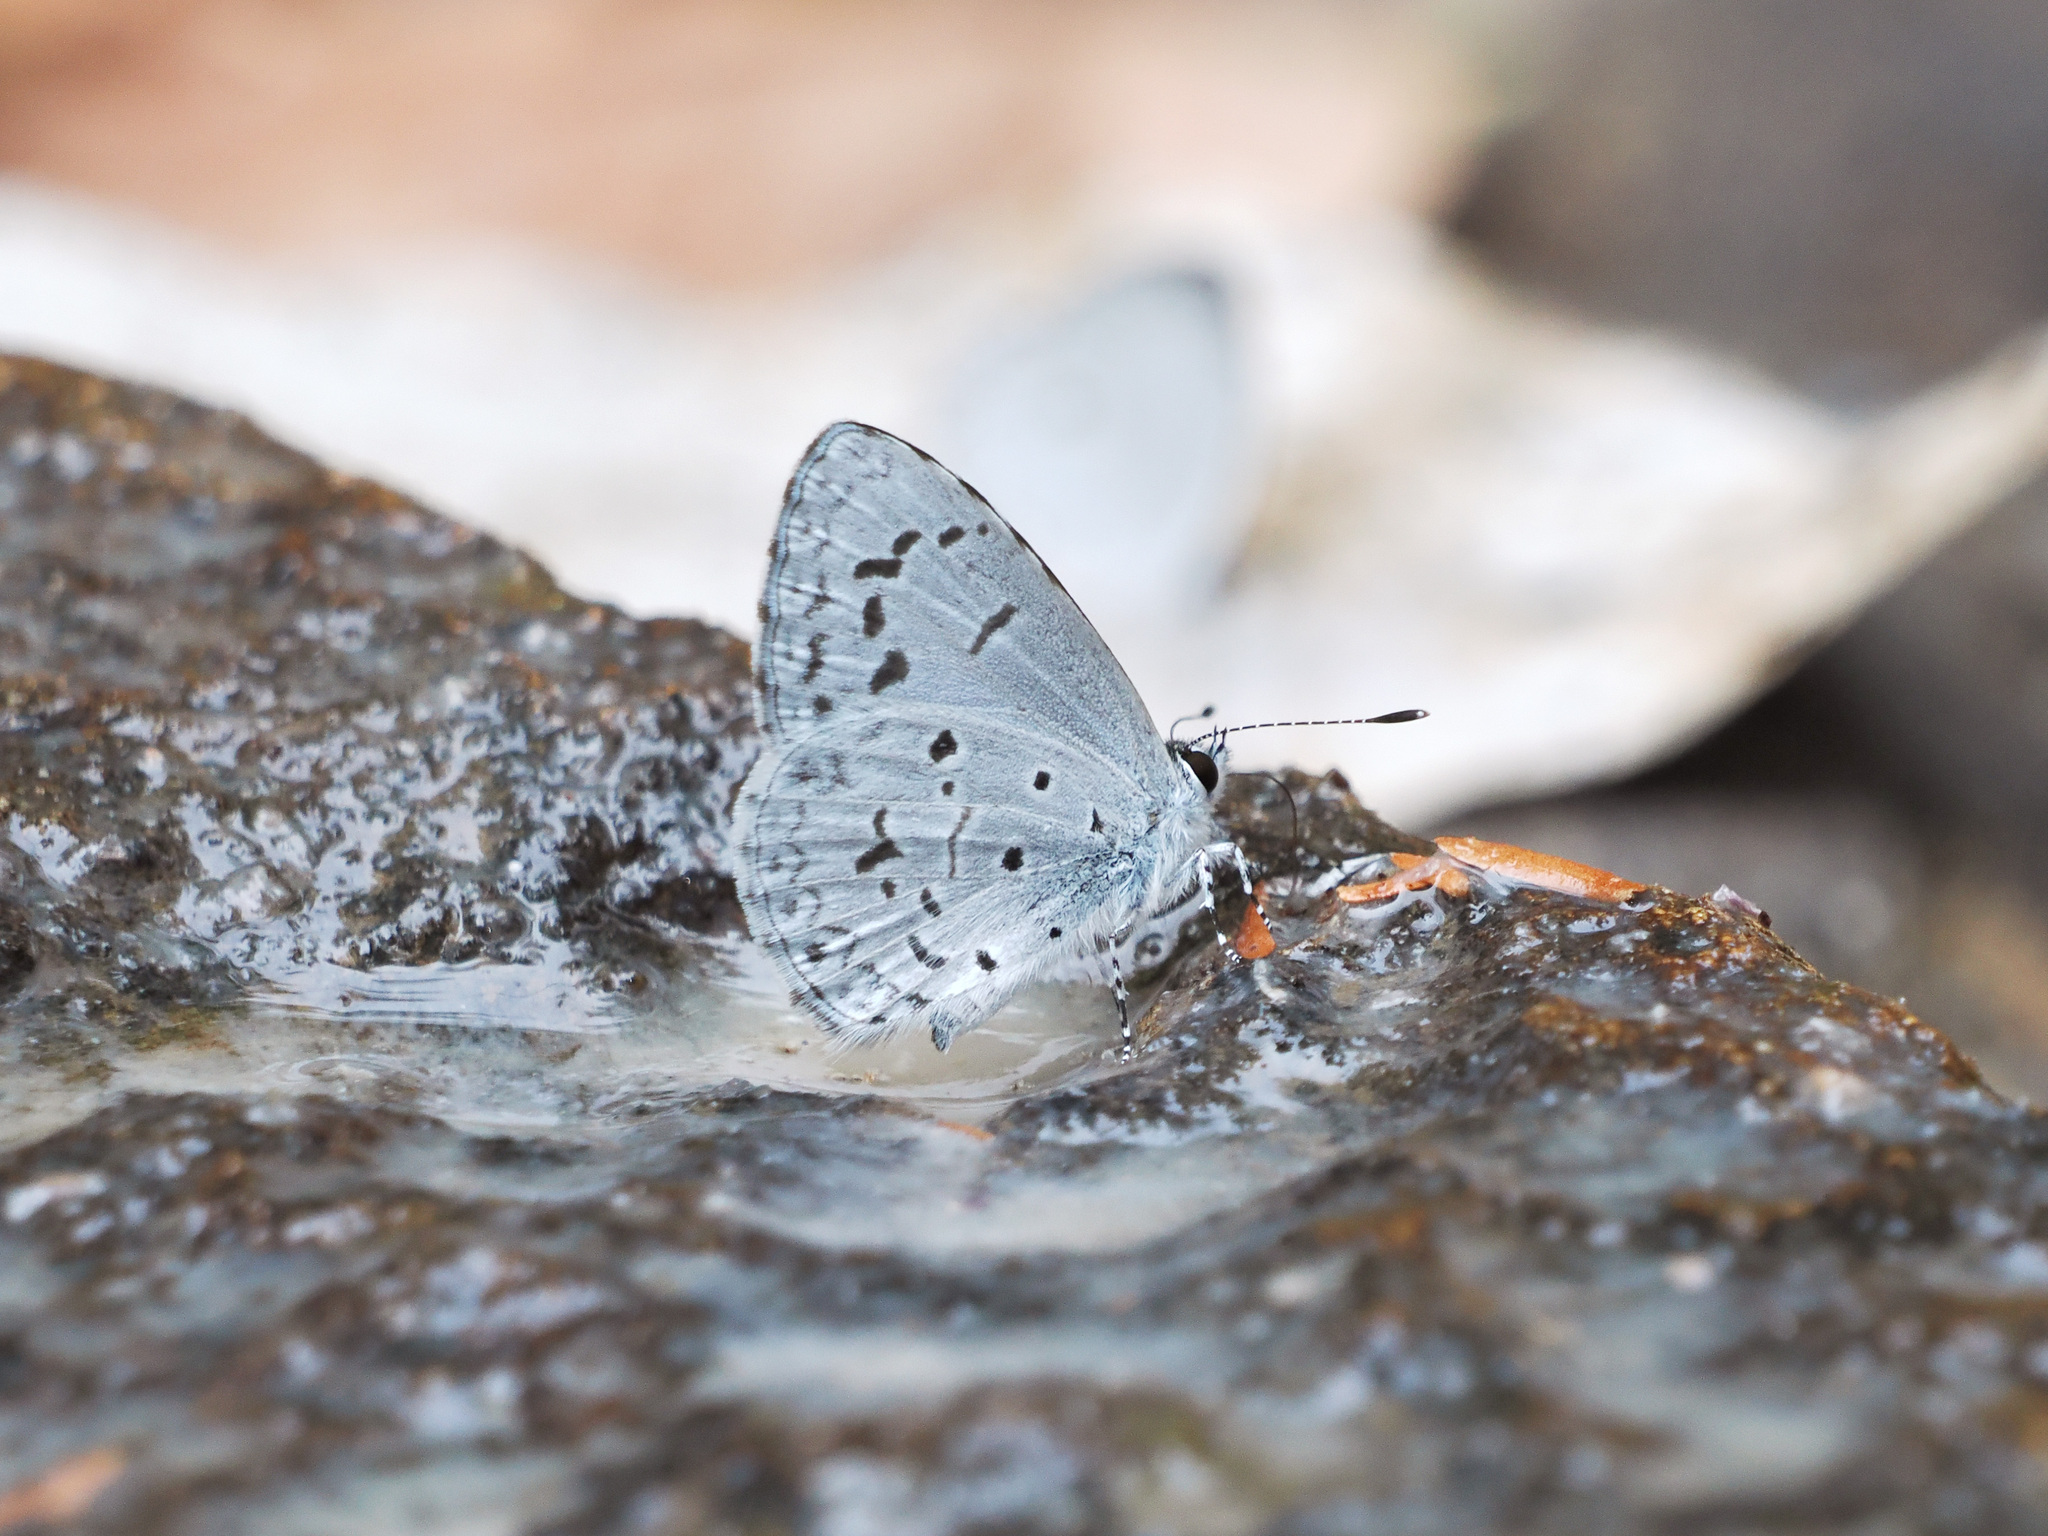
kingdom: Animalia
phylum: Arthropoda
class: Insecta
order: Lepidoptera
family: Lycaenidae
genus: Acytolepis
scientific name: Acytolepis puspa
